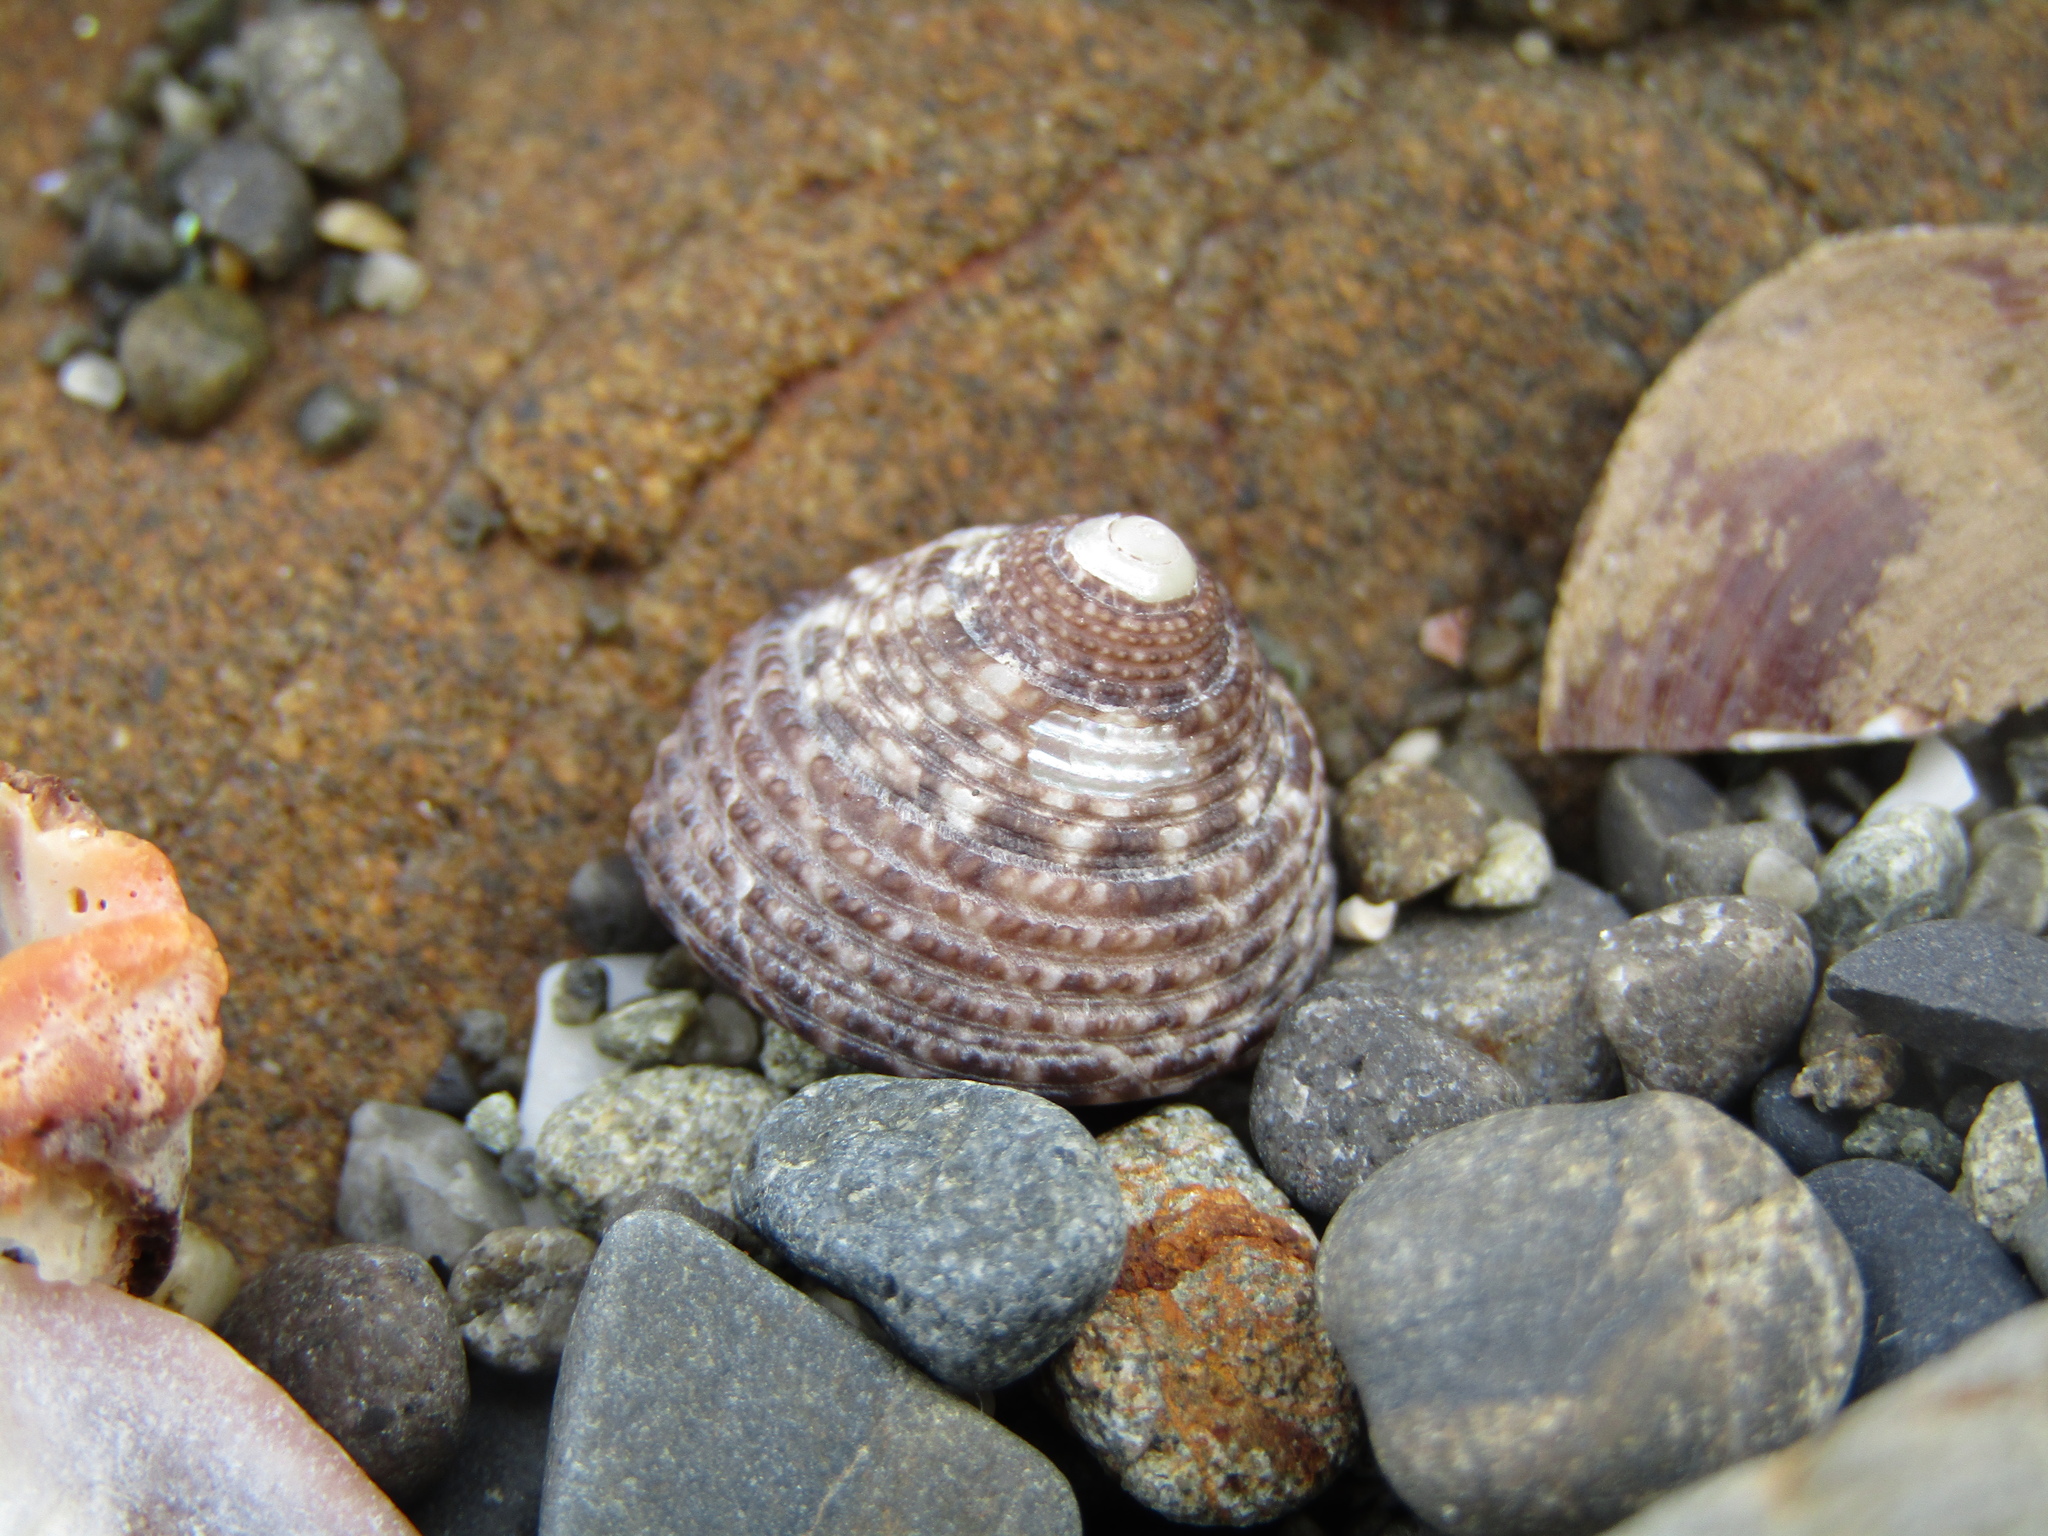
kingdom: Animalia
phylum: Mollusca
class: Gastropoda
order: Trochida
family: Trochidae
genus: Coelotrochus
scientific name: Coelotrochus tiaratus
